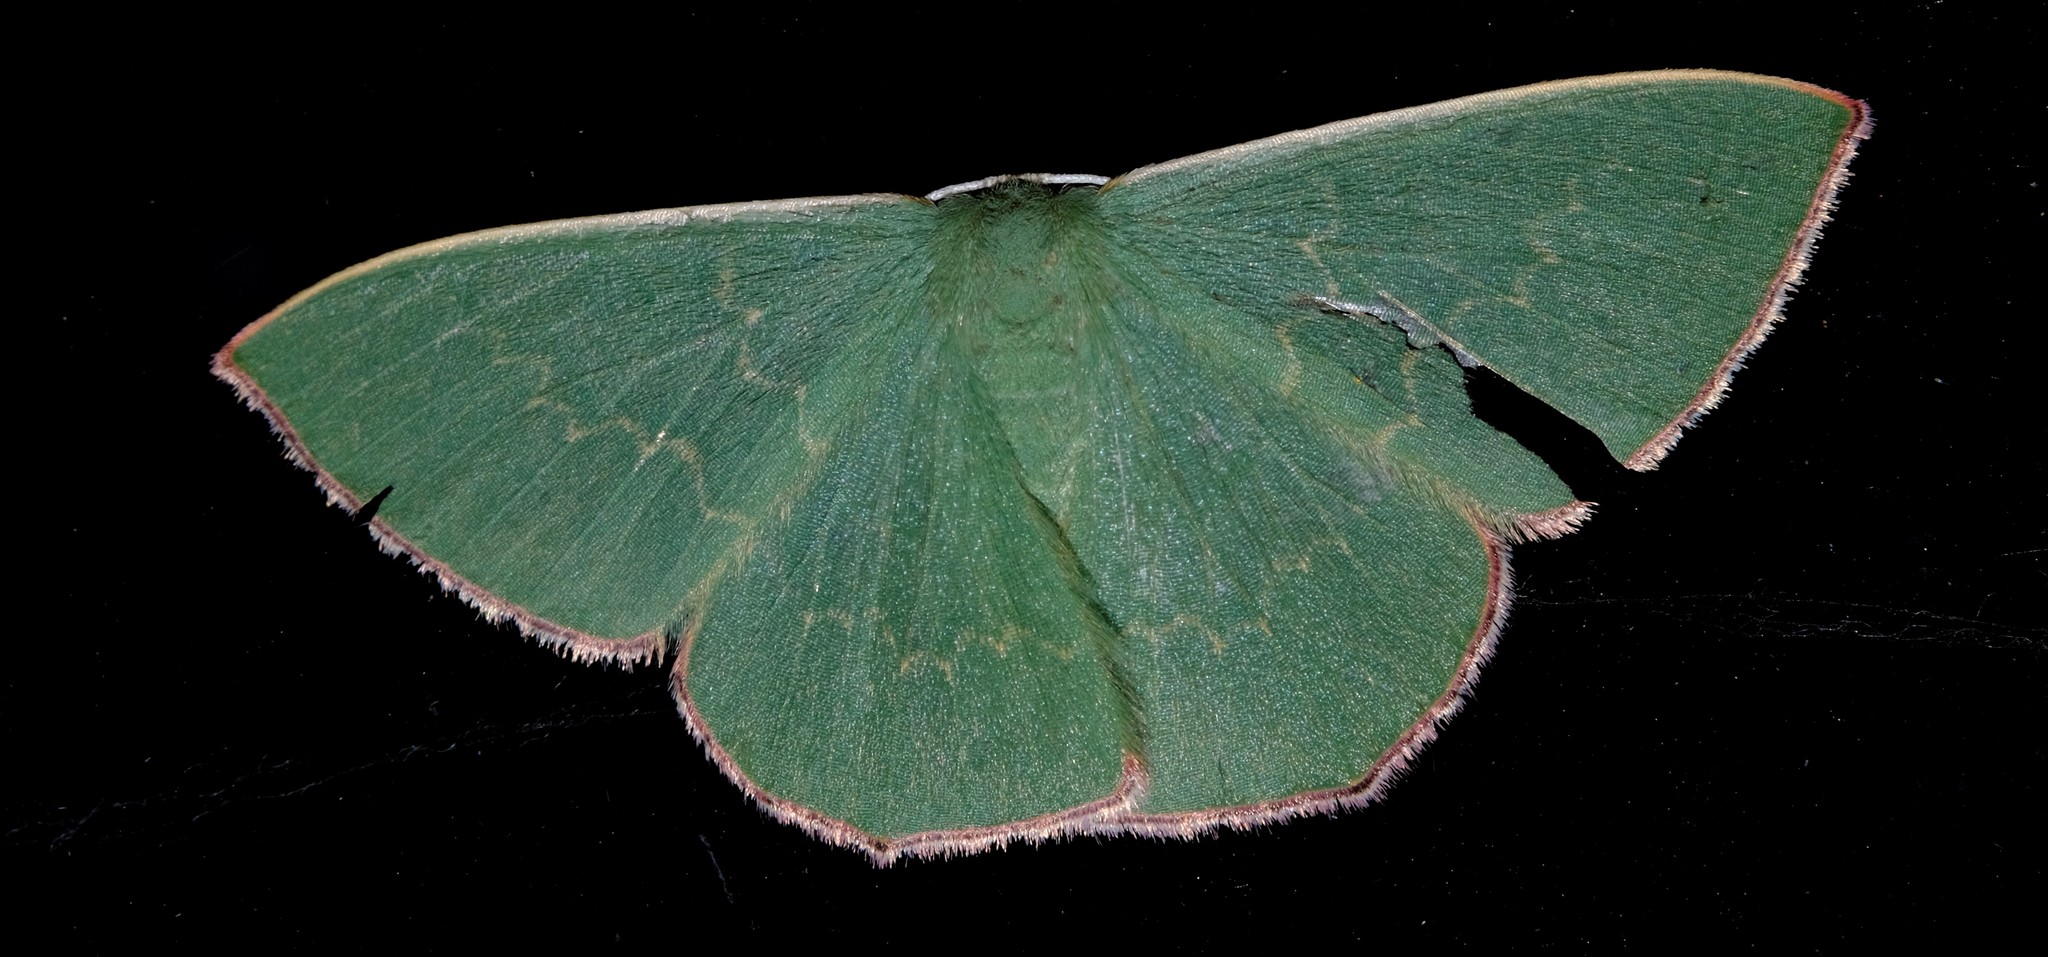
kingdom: Animalia
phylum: Arthropoda
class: Insecta
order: Lepidoptera
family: Geometridae
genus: Prasinocyma
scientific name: Prasinocyma semicrocea
